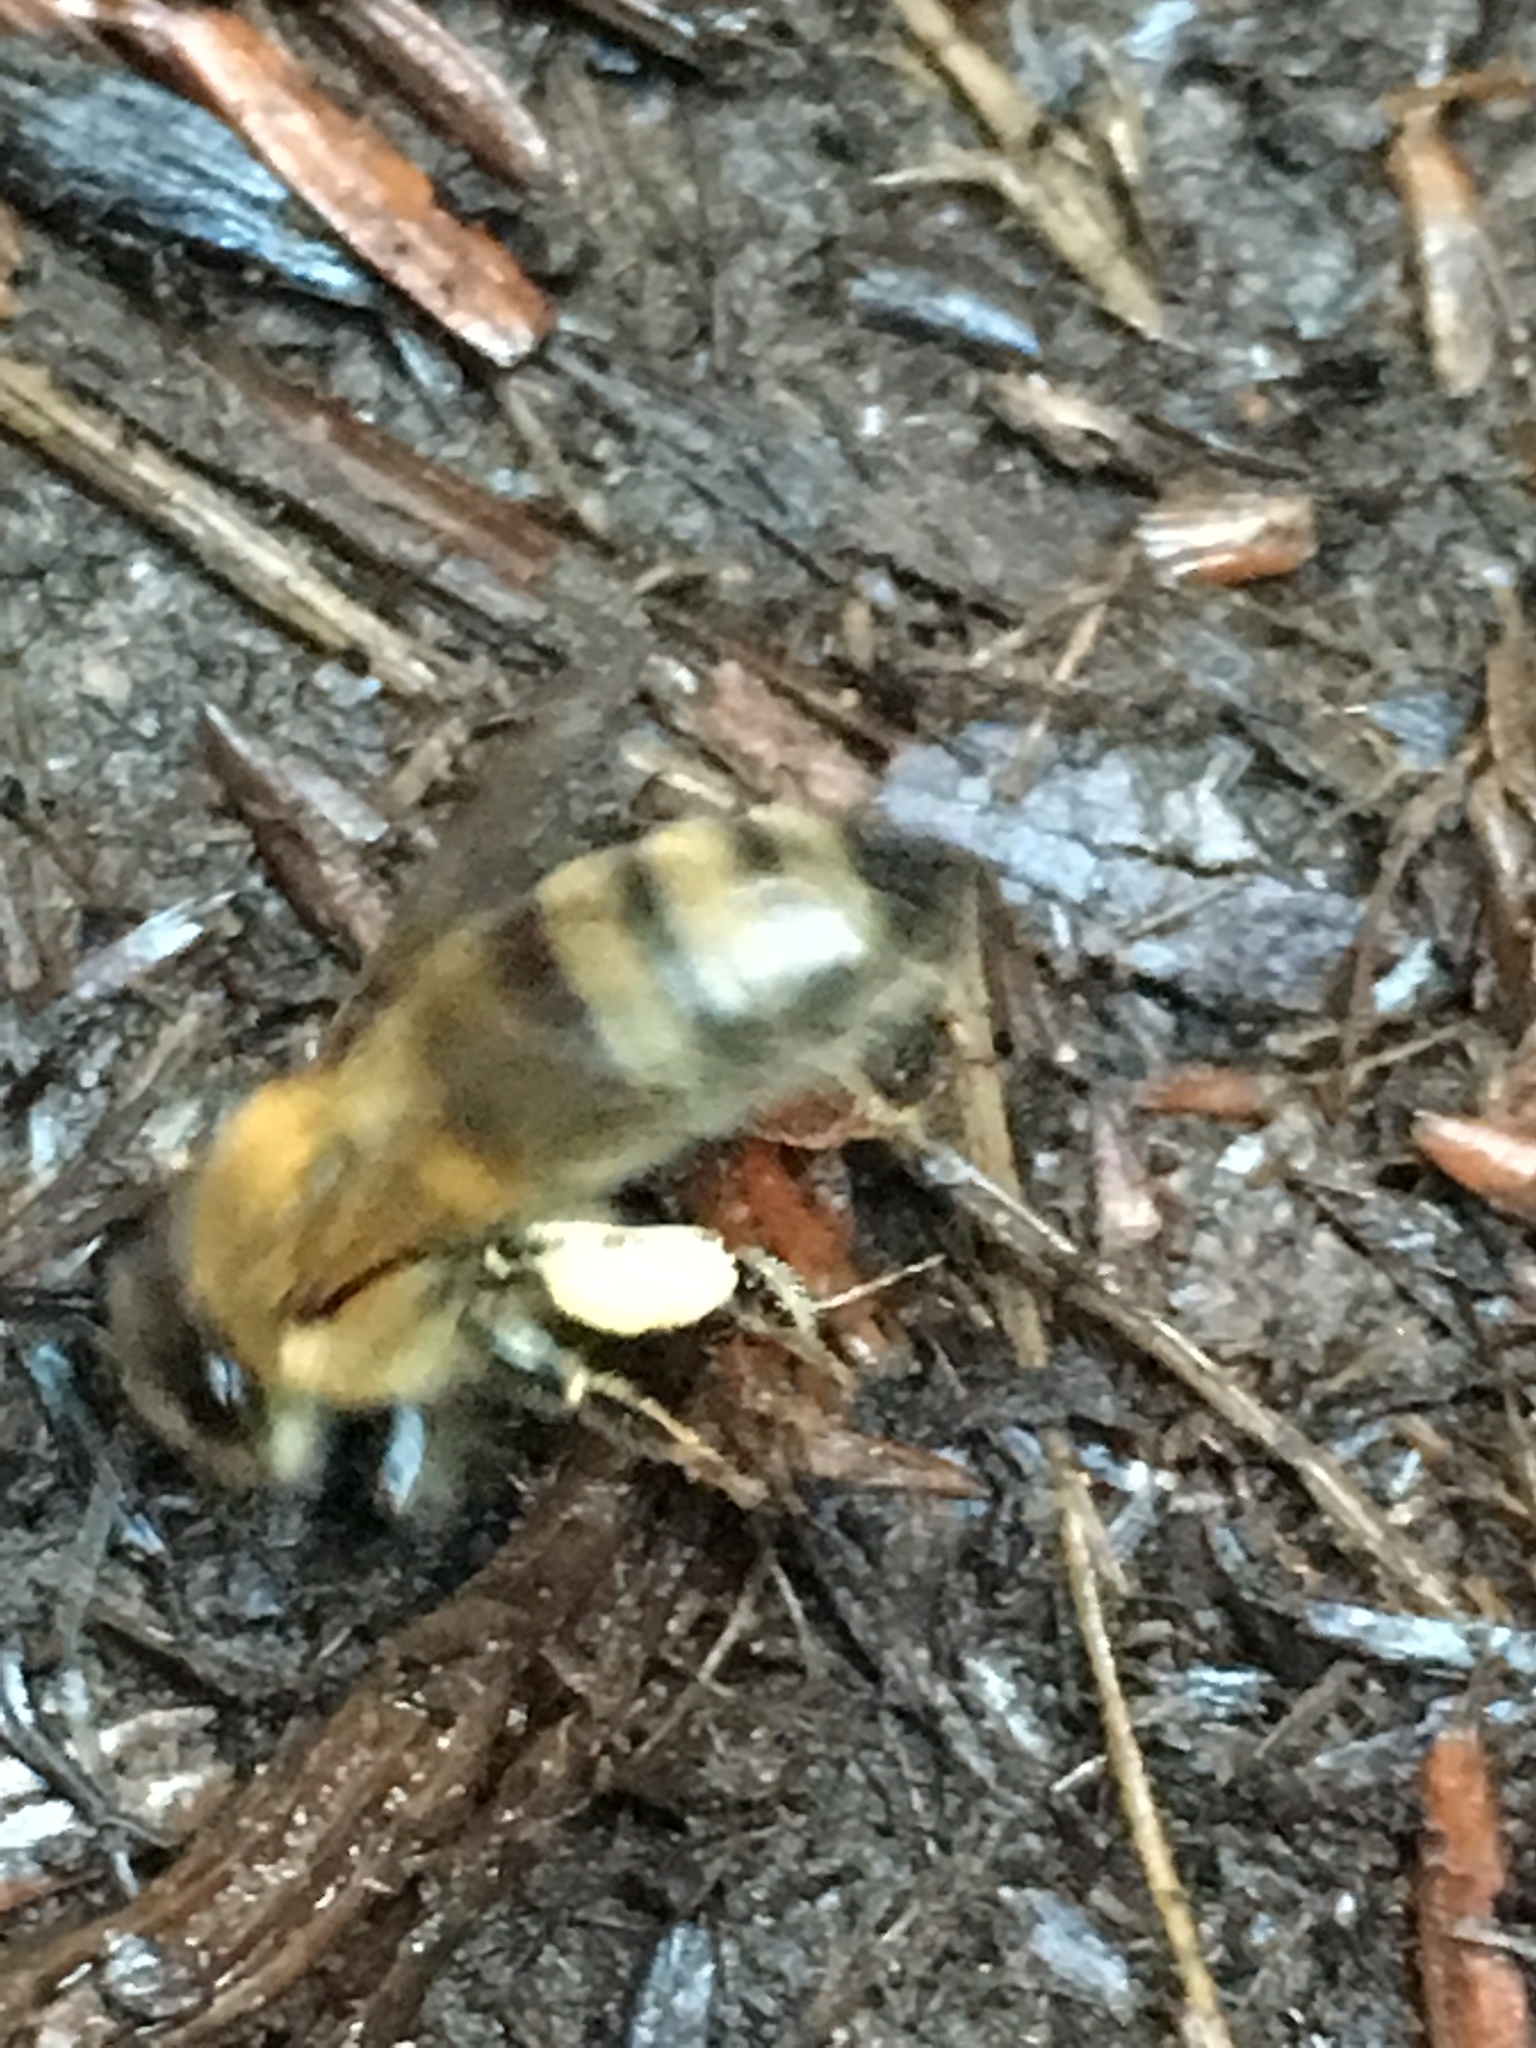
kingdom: Animalia
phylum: Arthropoda
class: Insecta
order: Hymenoptera
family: Apidae
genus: Apis
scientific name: Apis mellifera
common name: Honey bee
